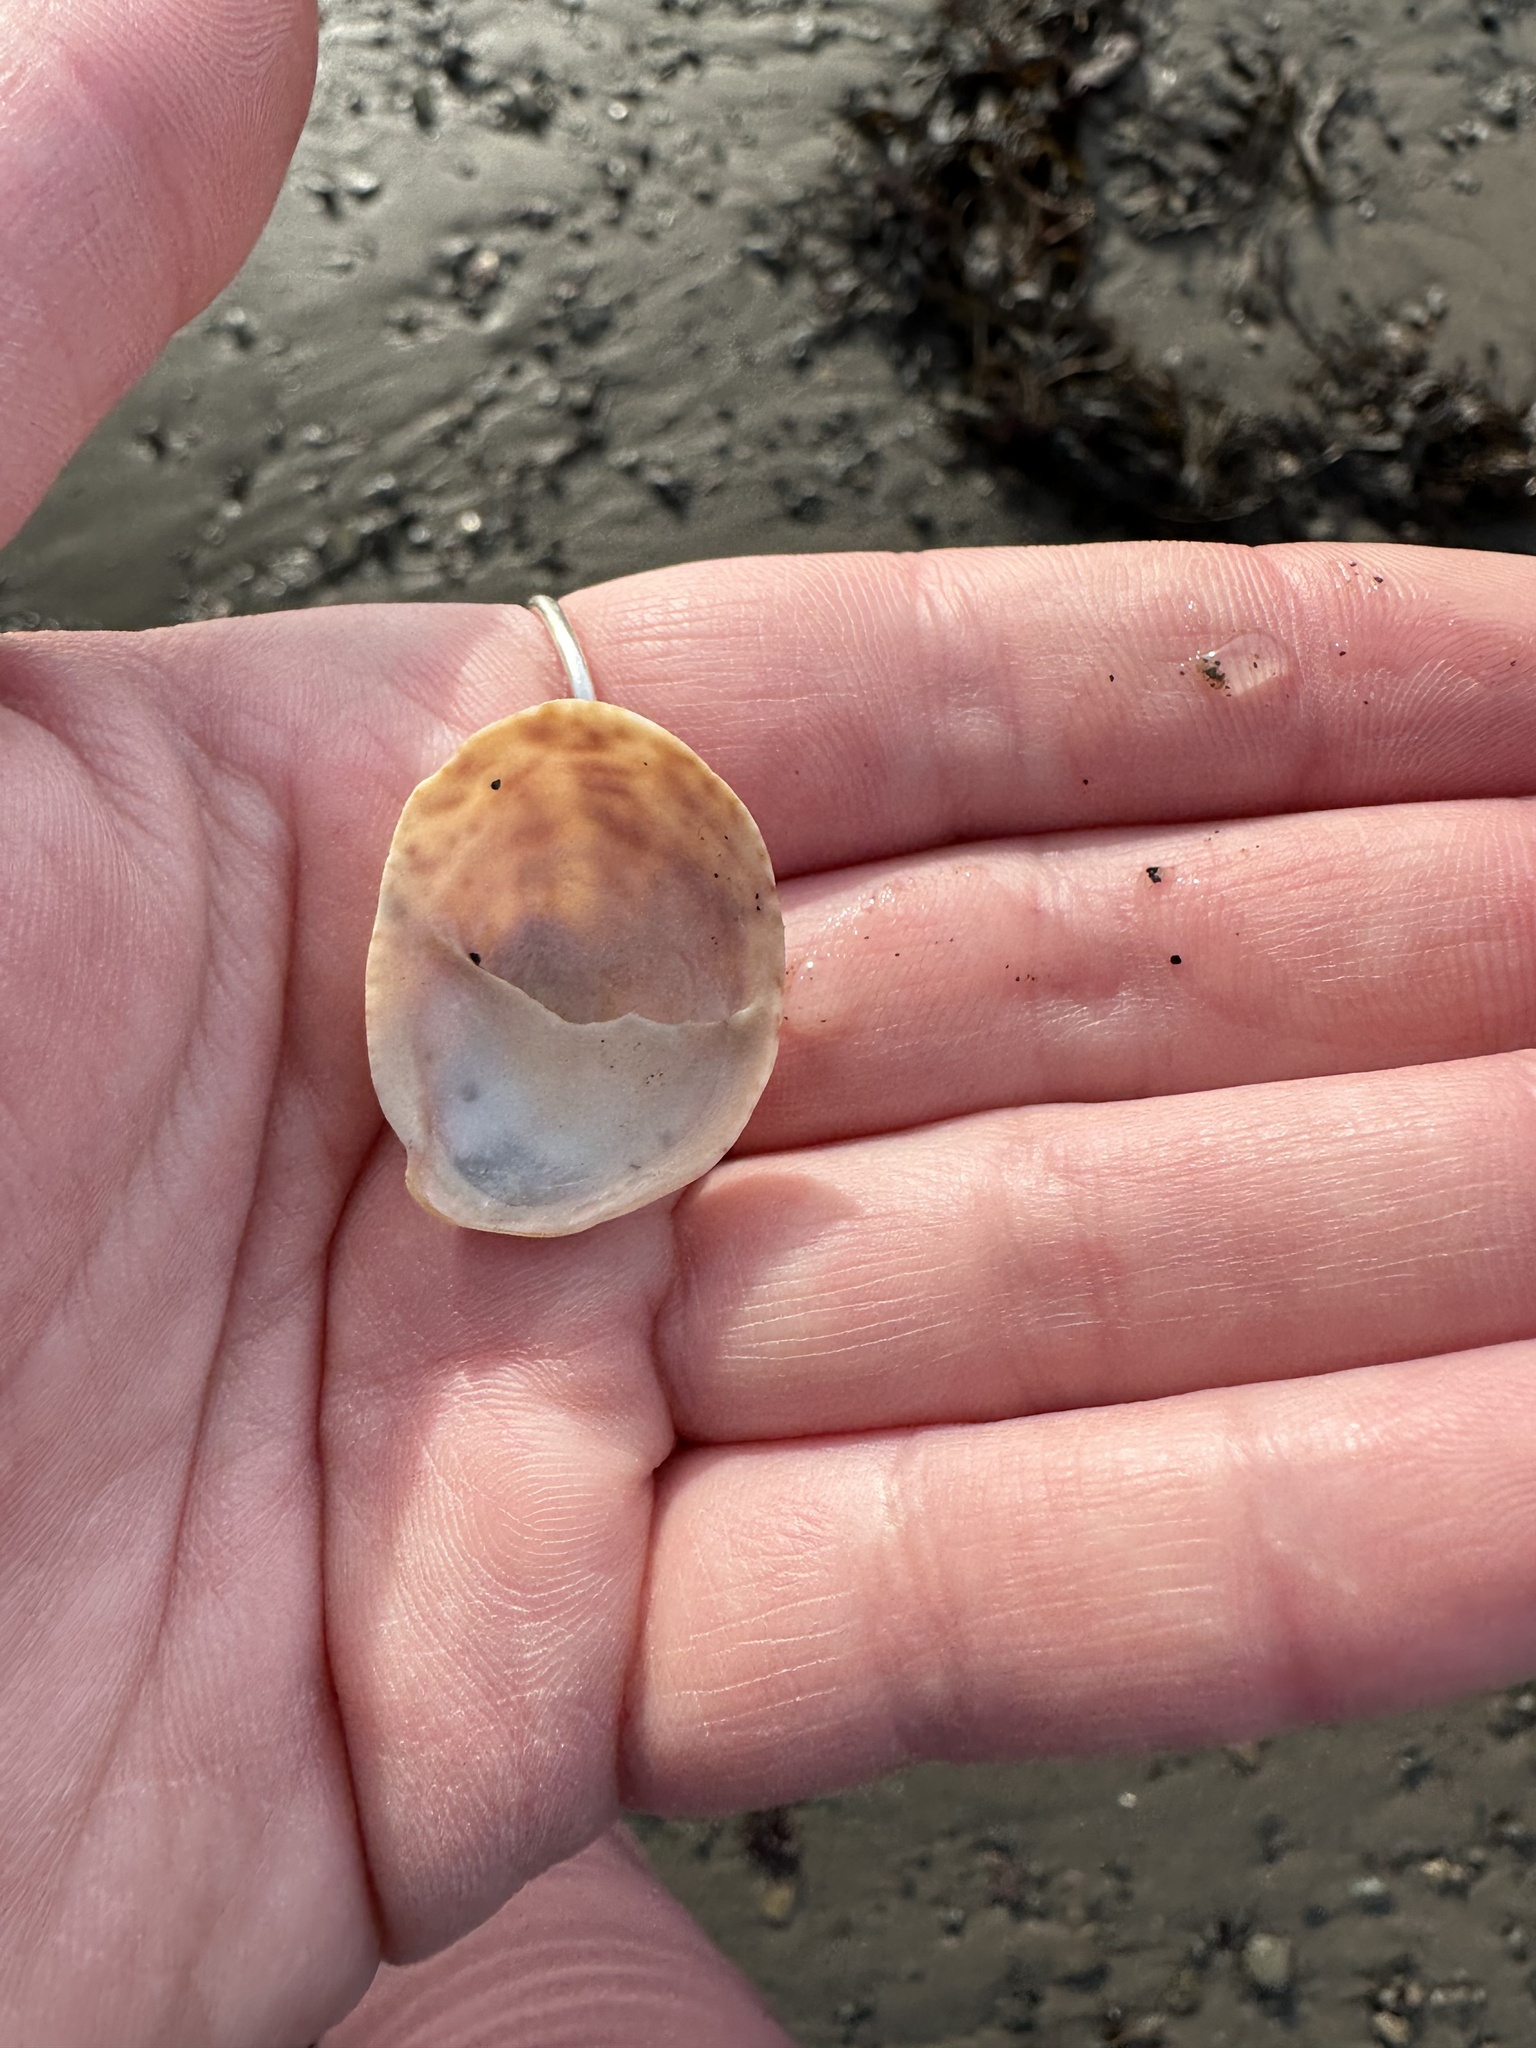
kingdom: Animalia
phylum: Mollusca
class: Gastropoda
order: Littorinimorpha
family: Calyptraeidae
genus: Crepidula
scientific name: Crepidula fornicata
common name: Slipper limpet
